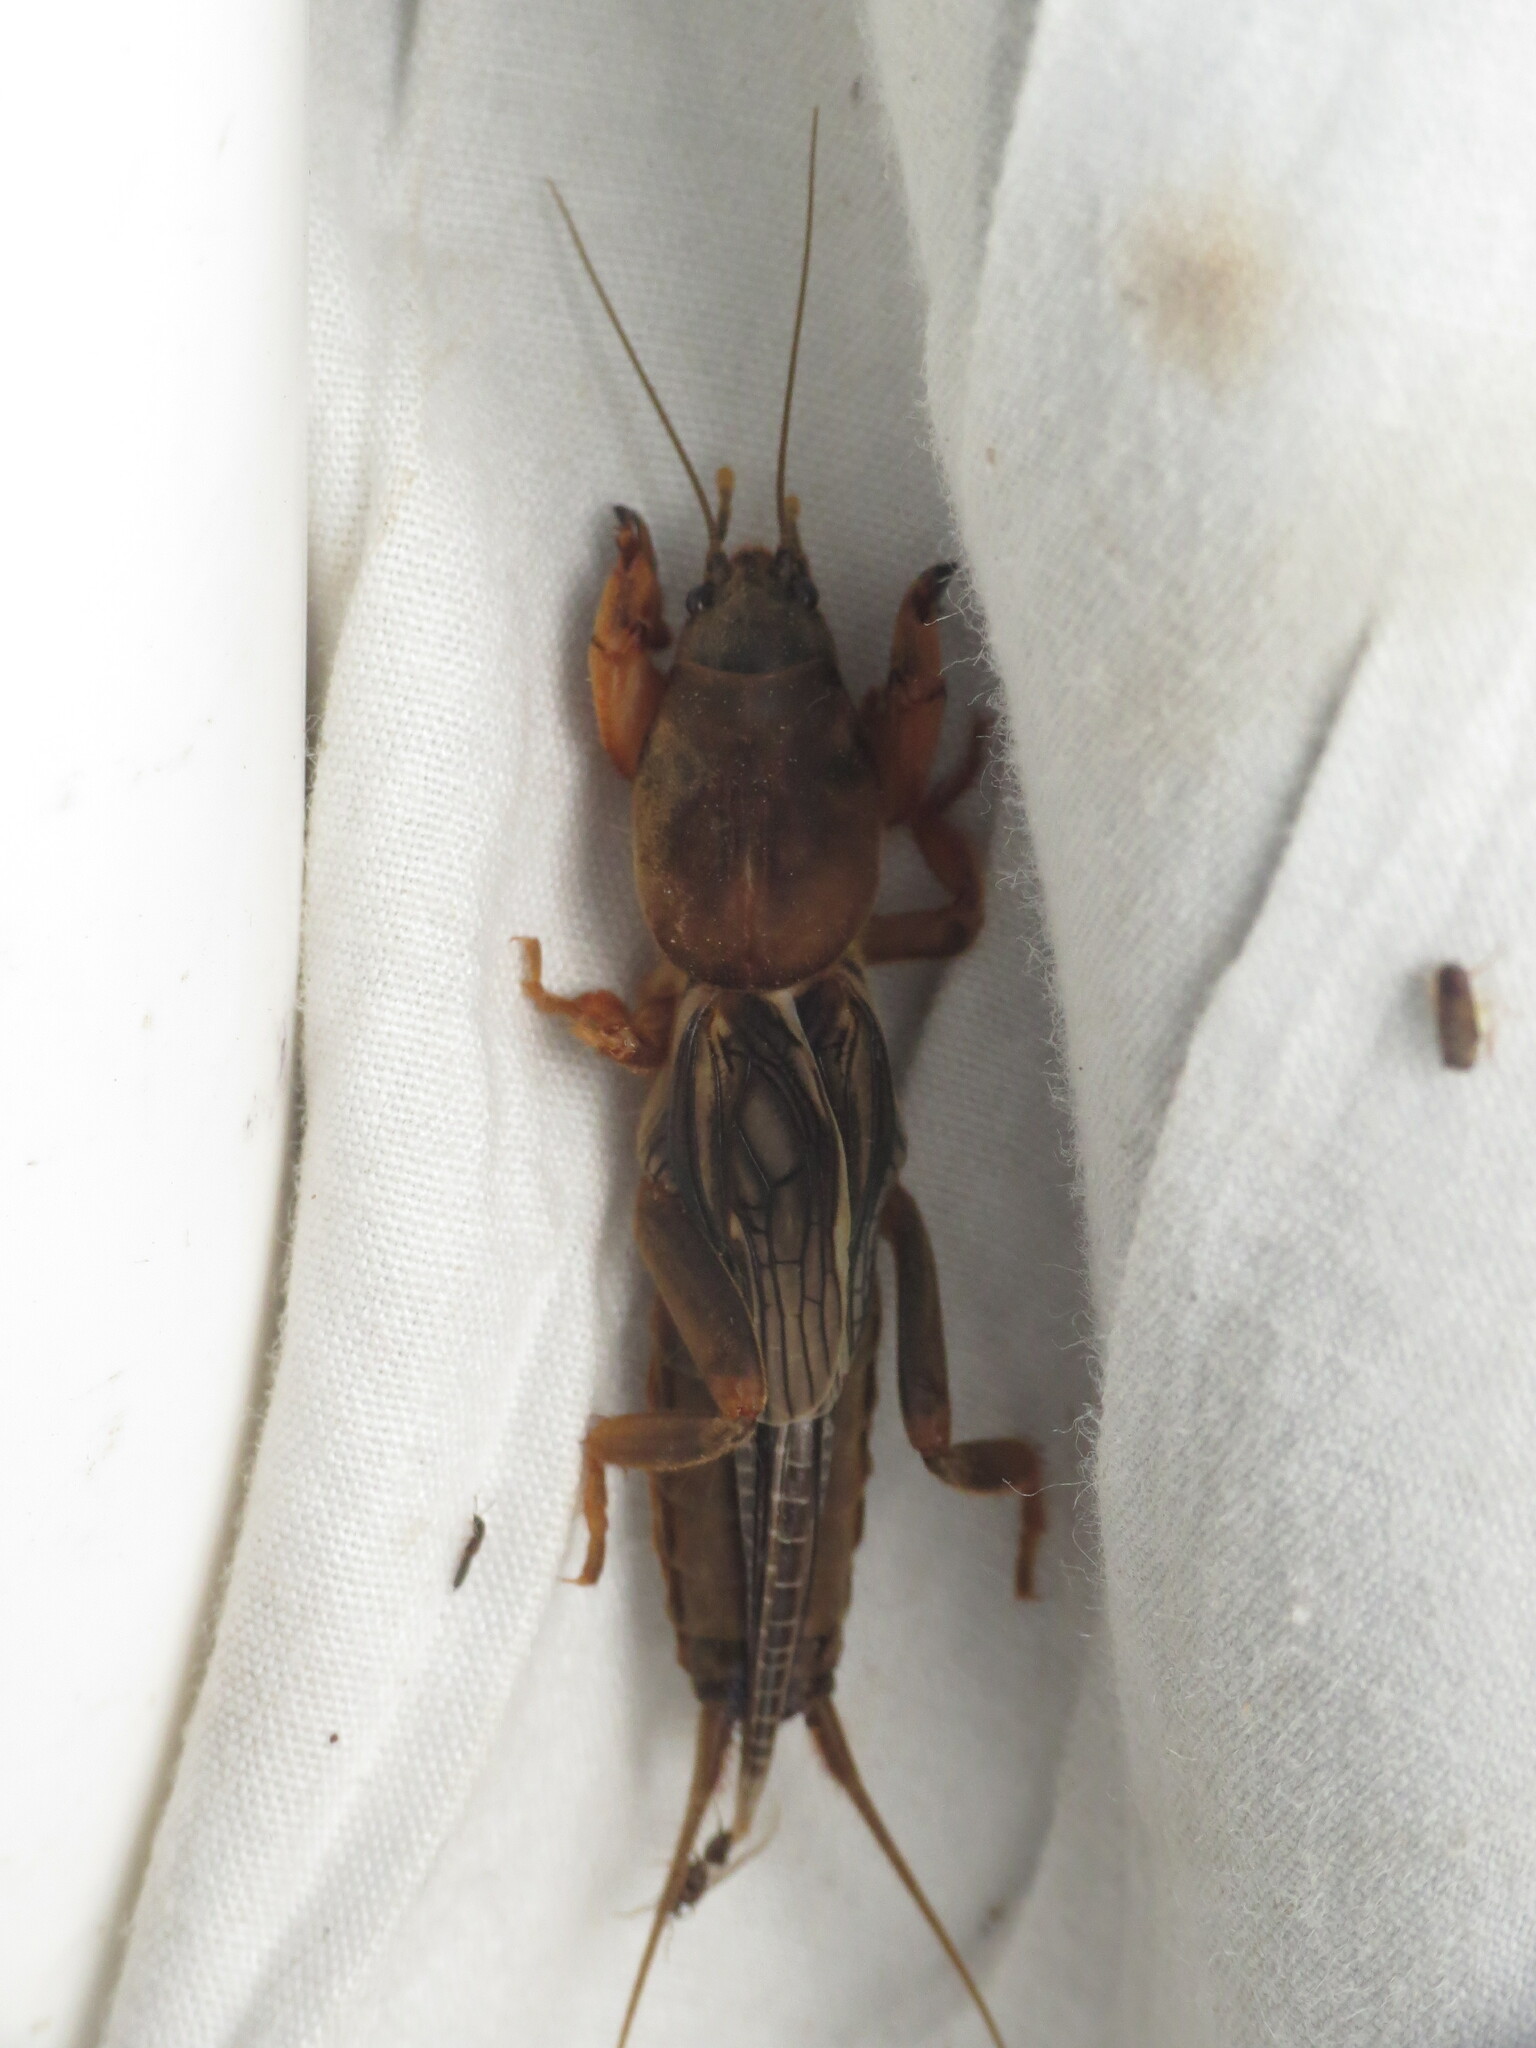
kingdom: Animalia
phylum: Arthropoda
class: Insecta
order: Orthoptera
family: Gryllotalpidae
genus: Neocurtilla
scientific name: Neocurtilla hexadactyla
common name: Northern mole cricket
